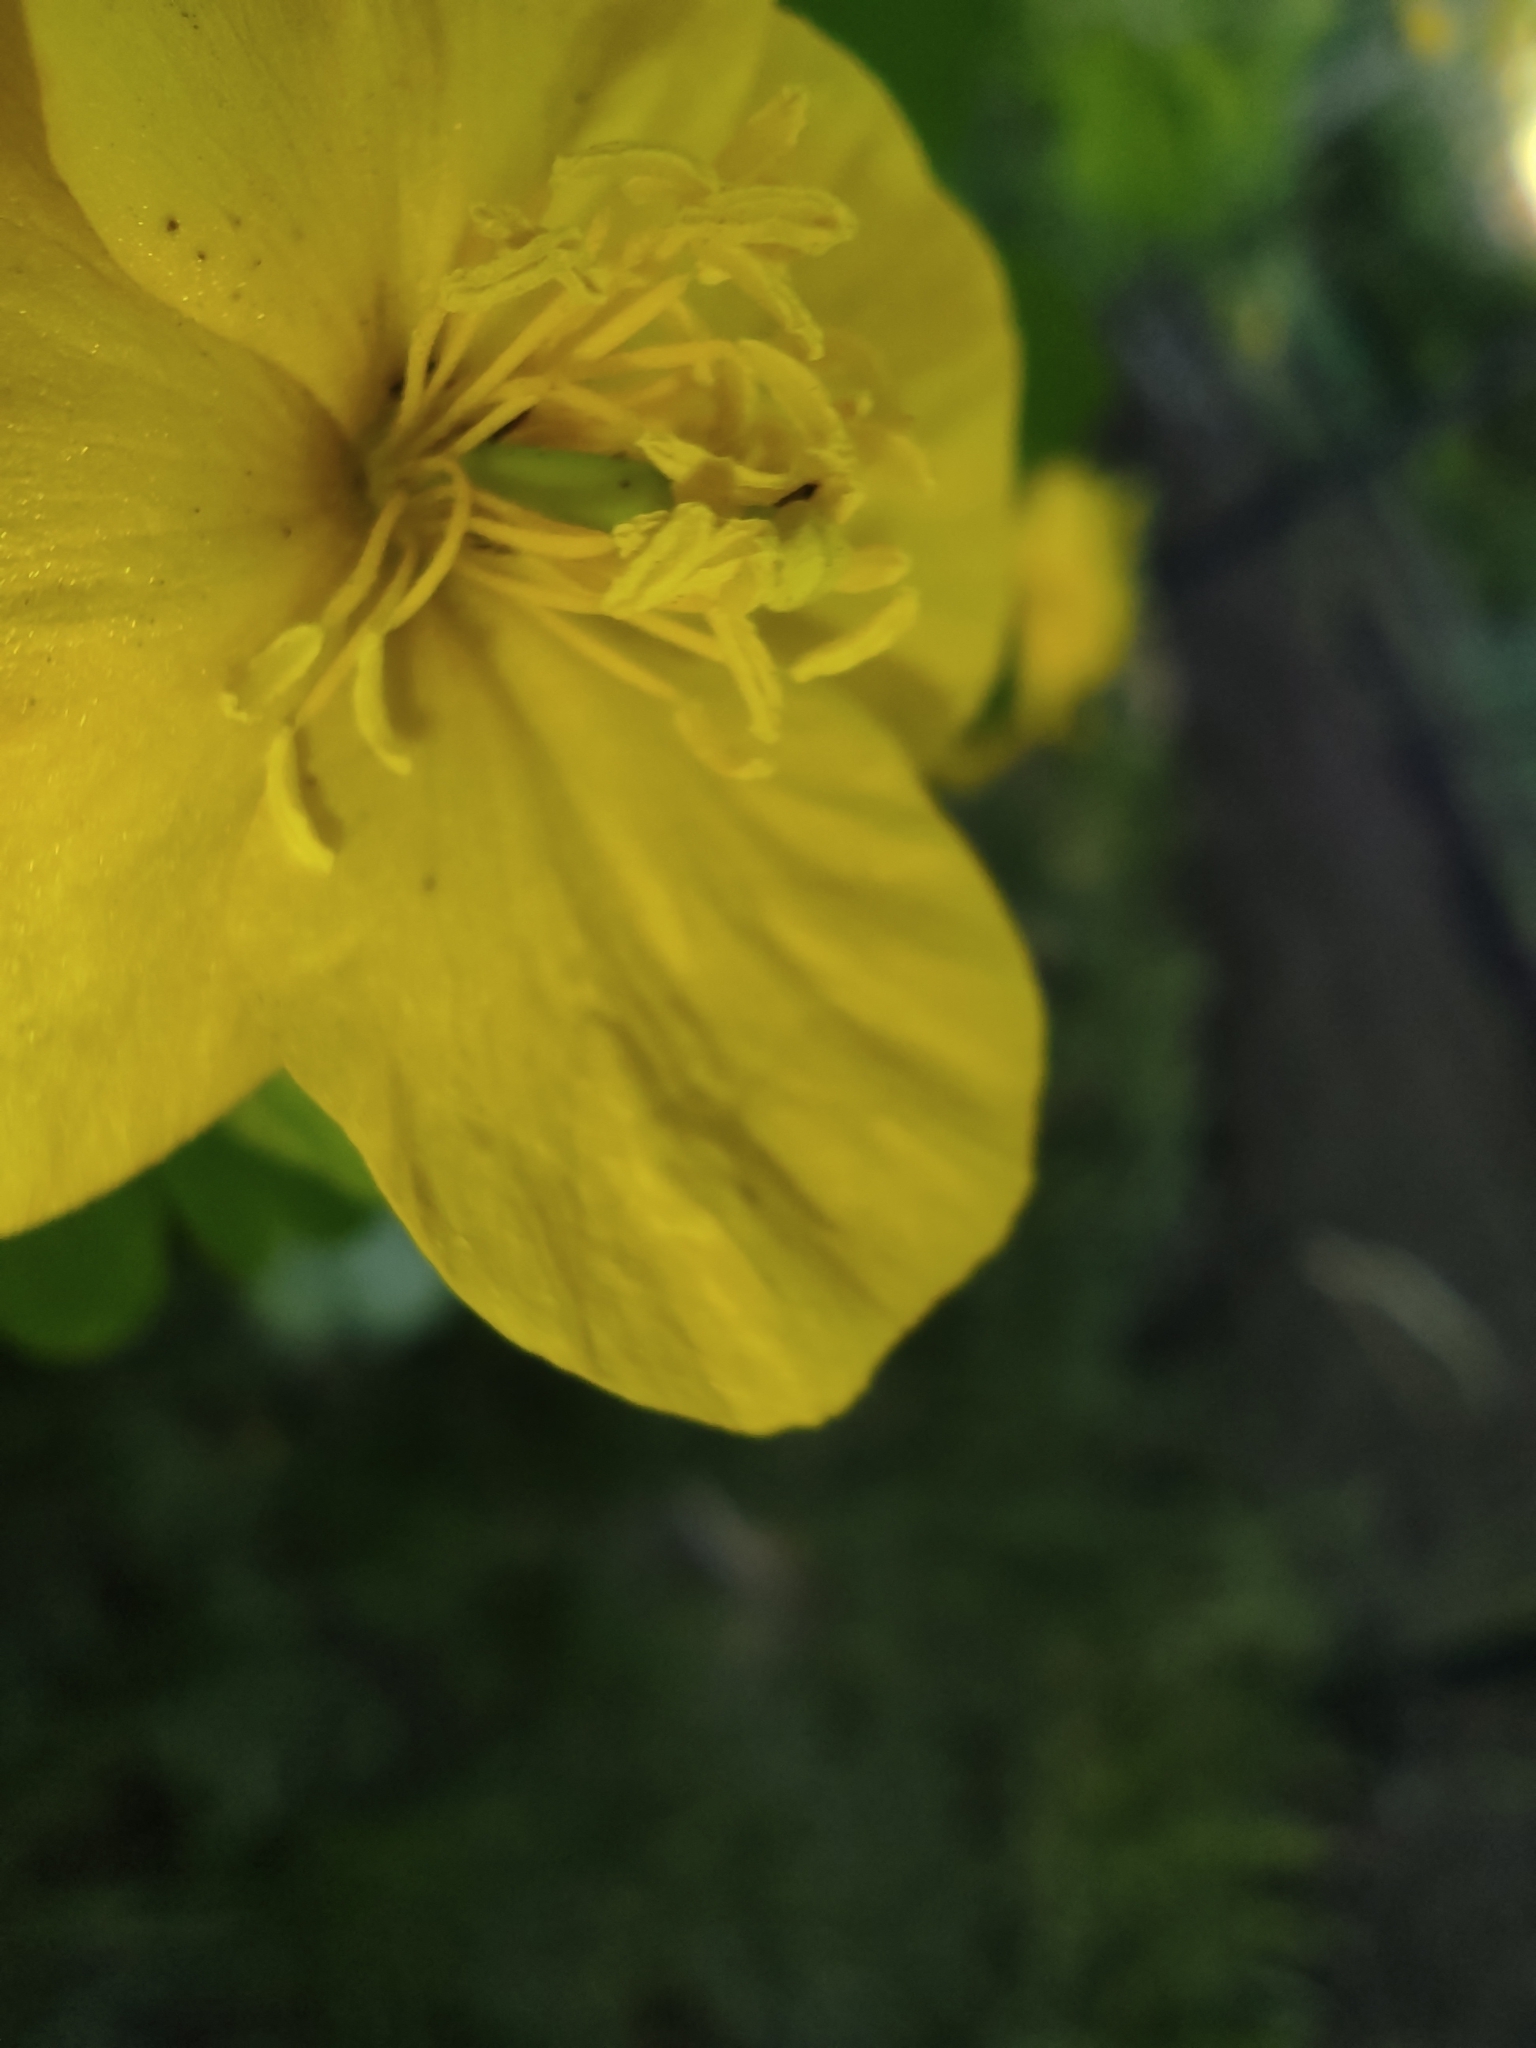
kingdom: Plantae
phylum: Tracheophyta
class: Magnoliopsida
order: Ranunculales
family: Papaveraceae
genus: Chelidonium
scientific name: Chelidonium majus
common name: Greater celandine
